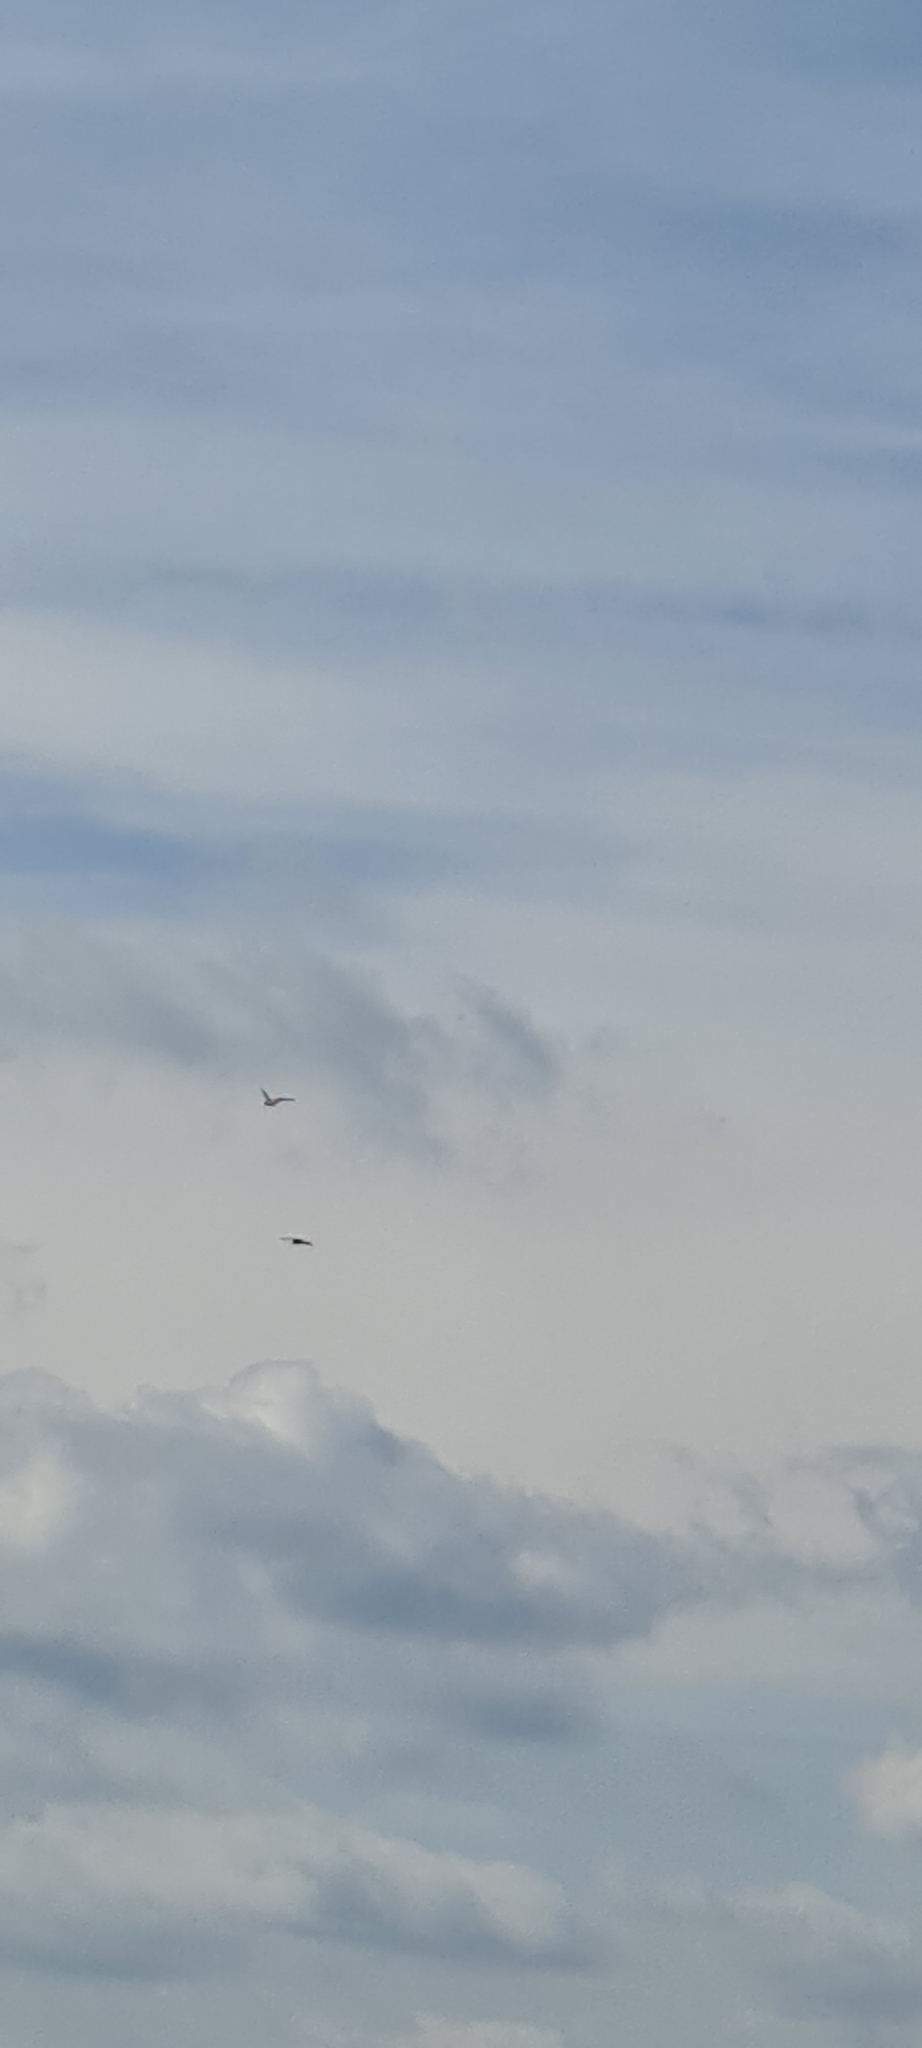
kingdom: Animalia
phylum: Chordata
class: Aves
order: Falconiformes
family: Falconidae
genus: Falco
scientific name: Falco tinnunculus
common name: Common kestrel
